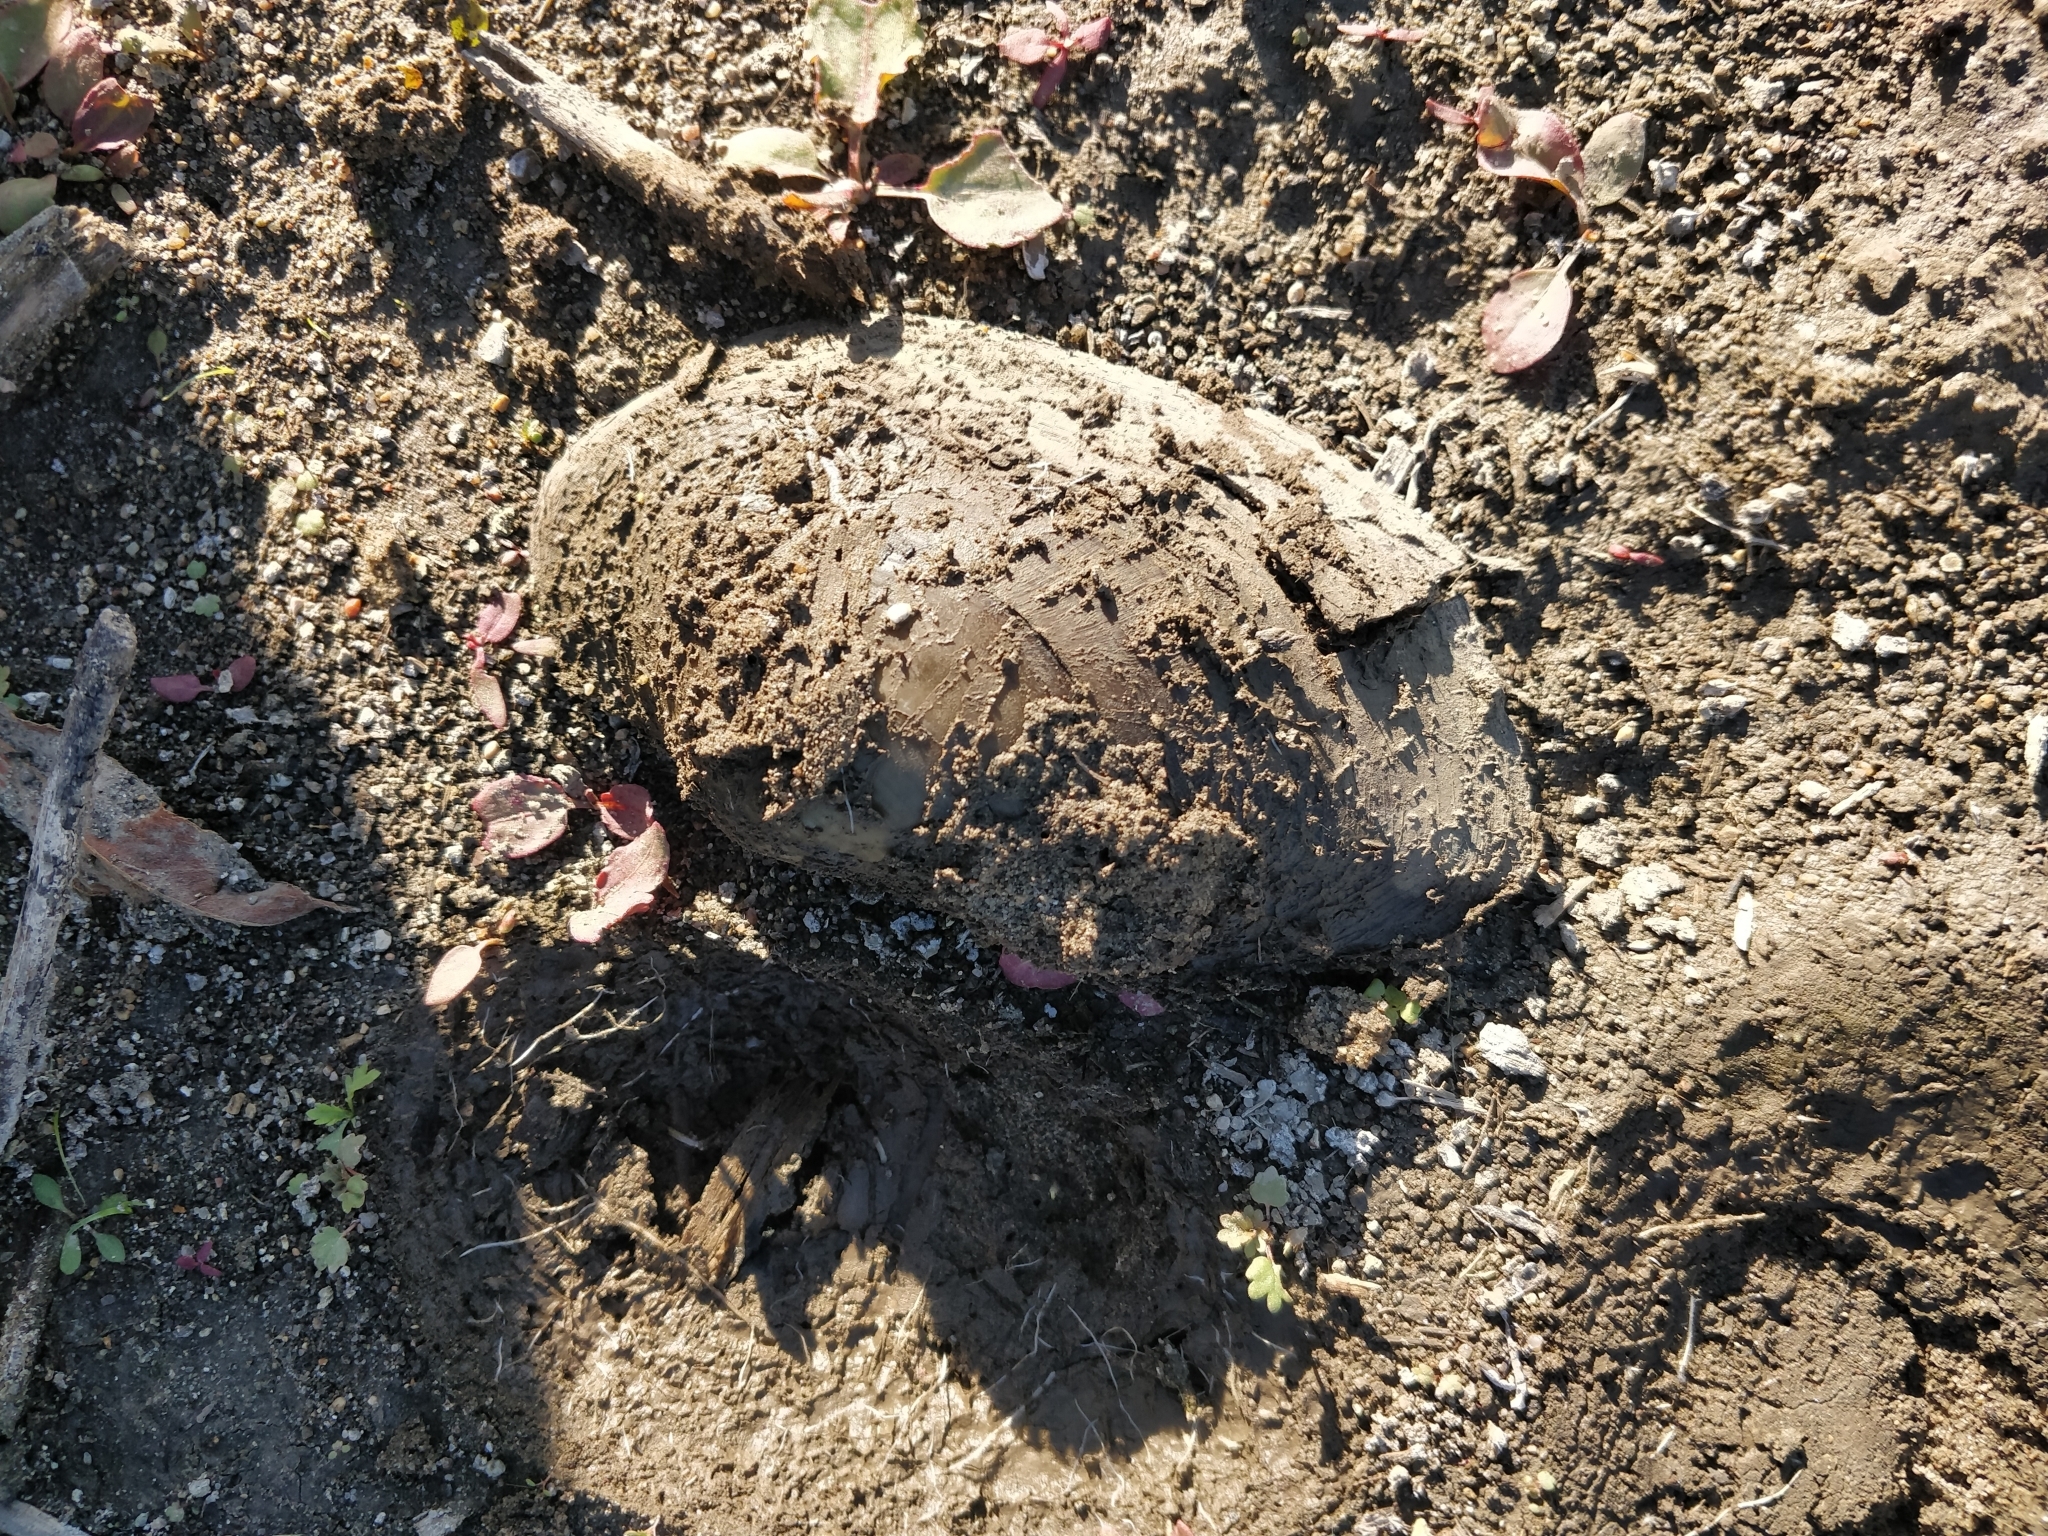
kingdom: Animalia
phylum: Mollusca
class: Bivalvia
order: Unionida
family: Unionidae
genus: Pyganodon
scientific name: Pyganodon grandis
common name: Giant floater
